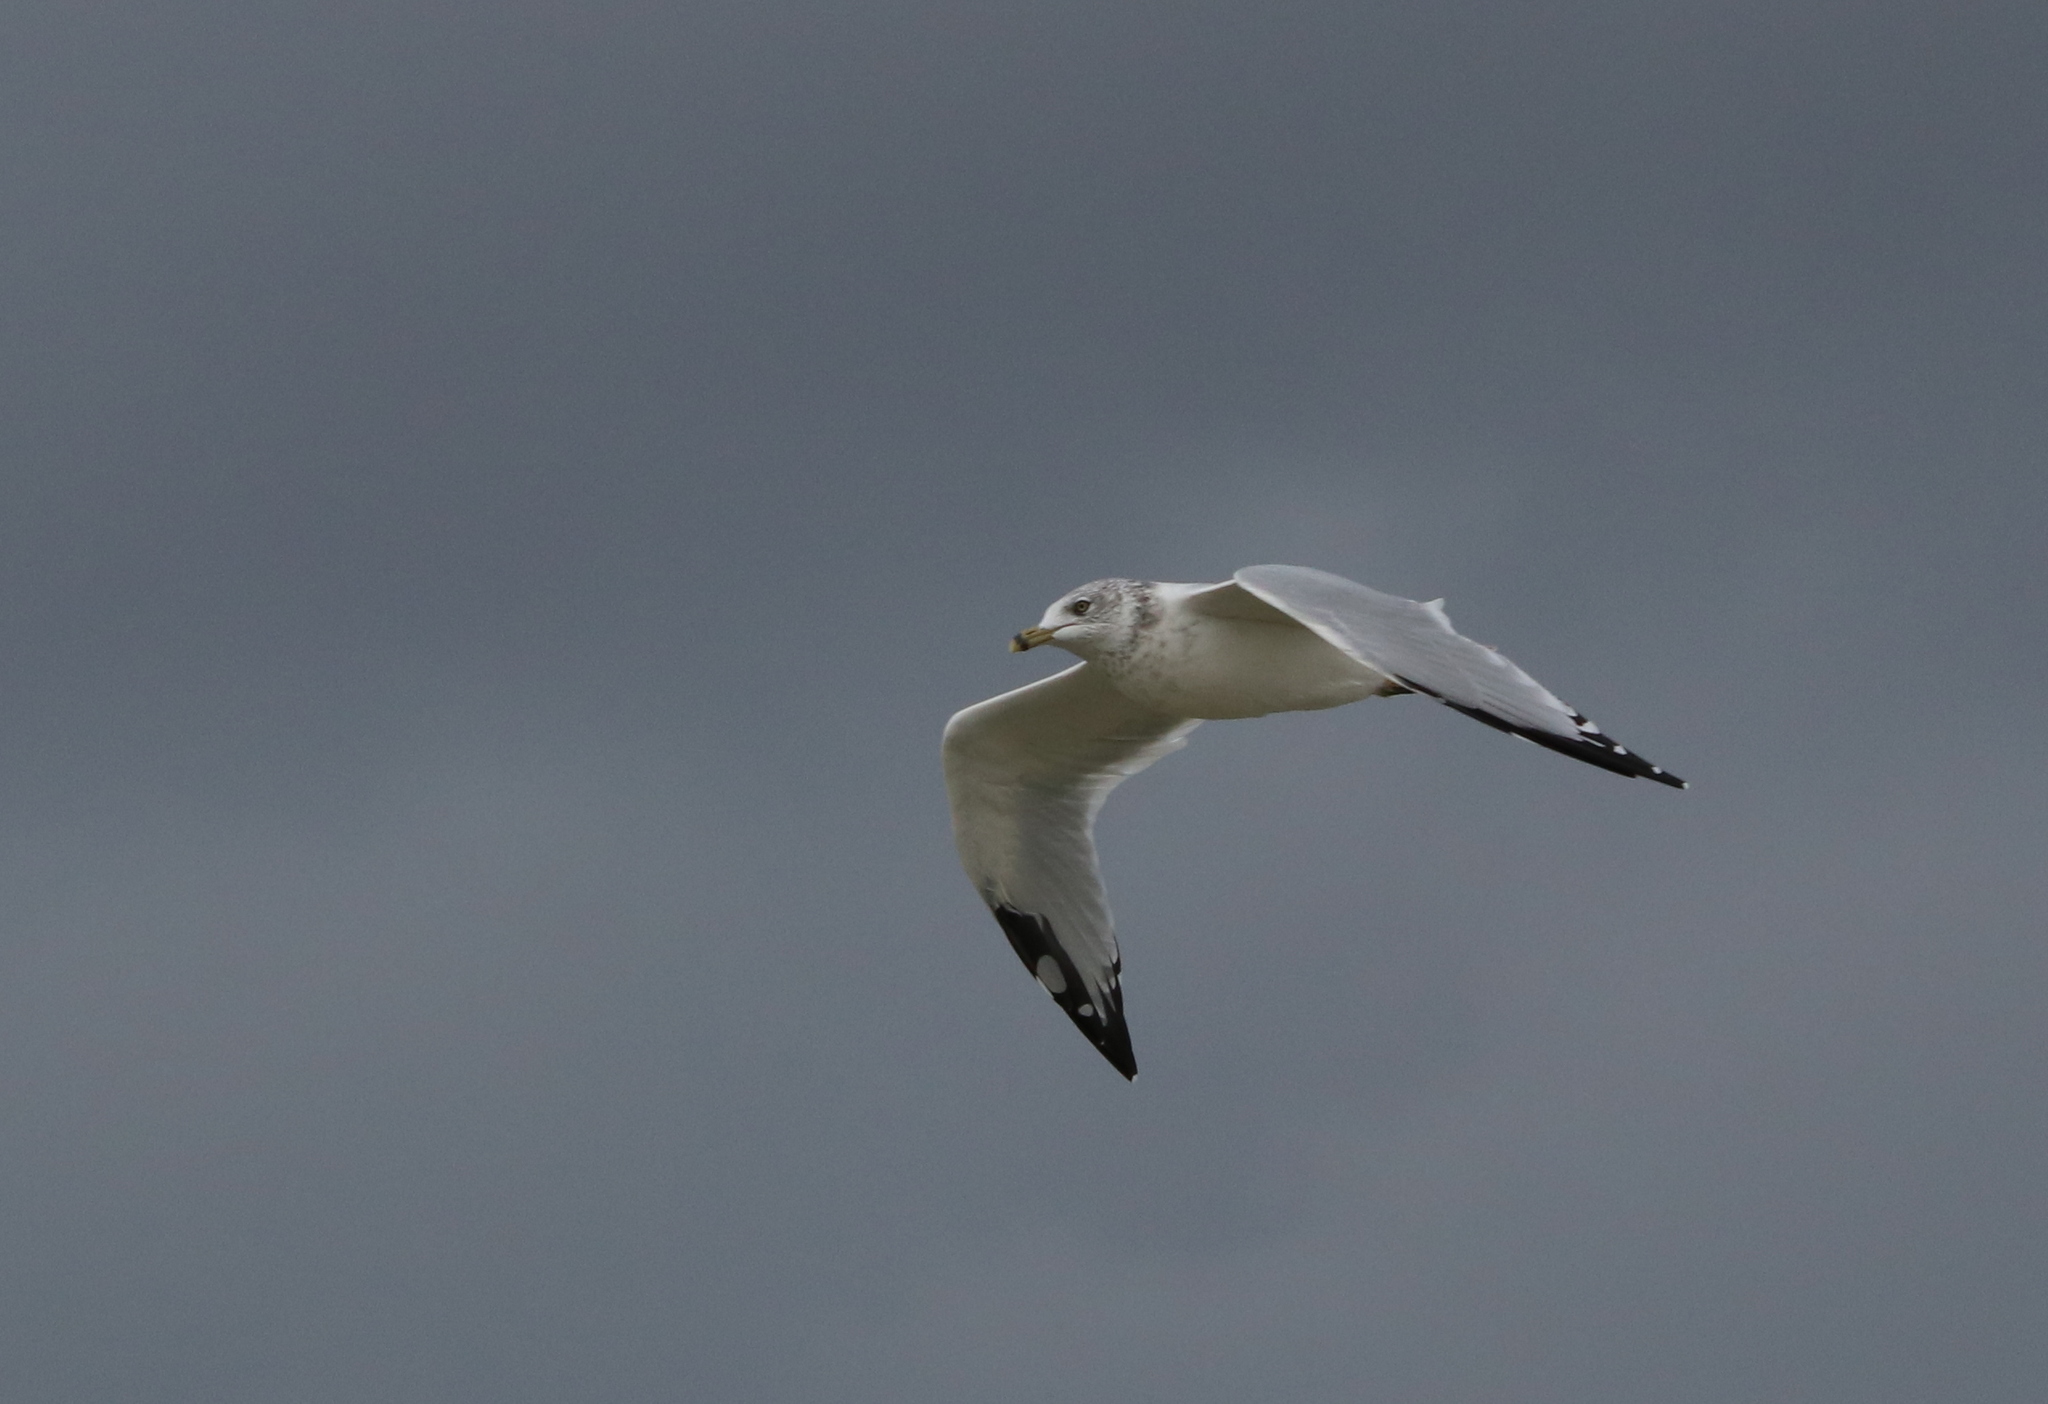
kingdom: Animalia
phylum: Chordata
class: Aves
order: Charadriiformes
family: Laridae
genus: Larus
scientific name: Larus delawarensis
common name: Ring-billed gull
